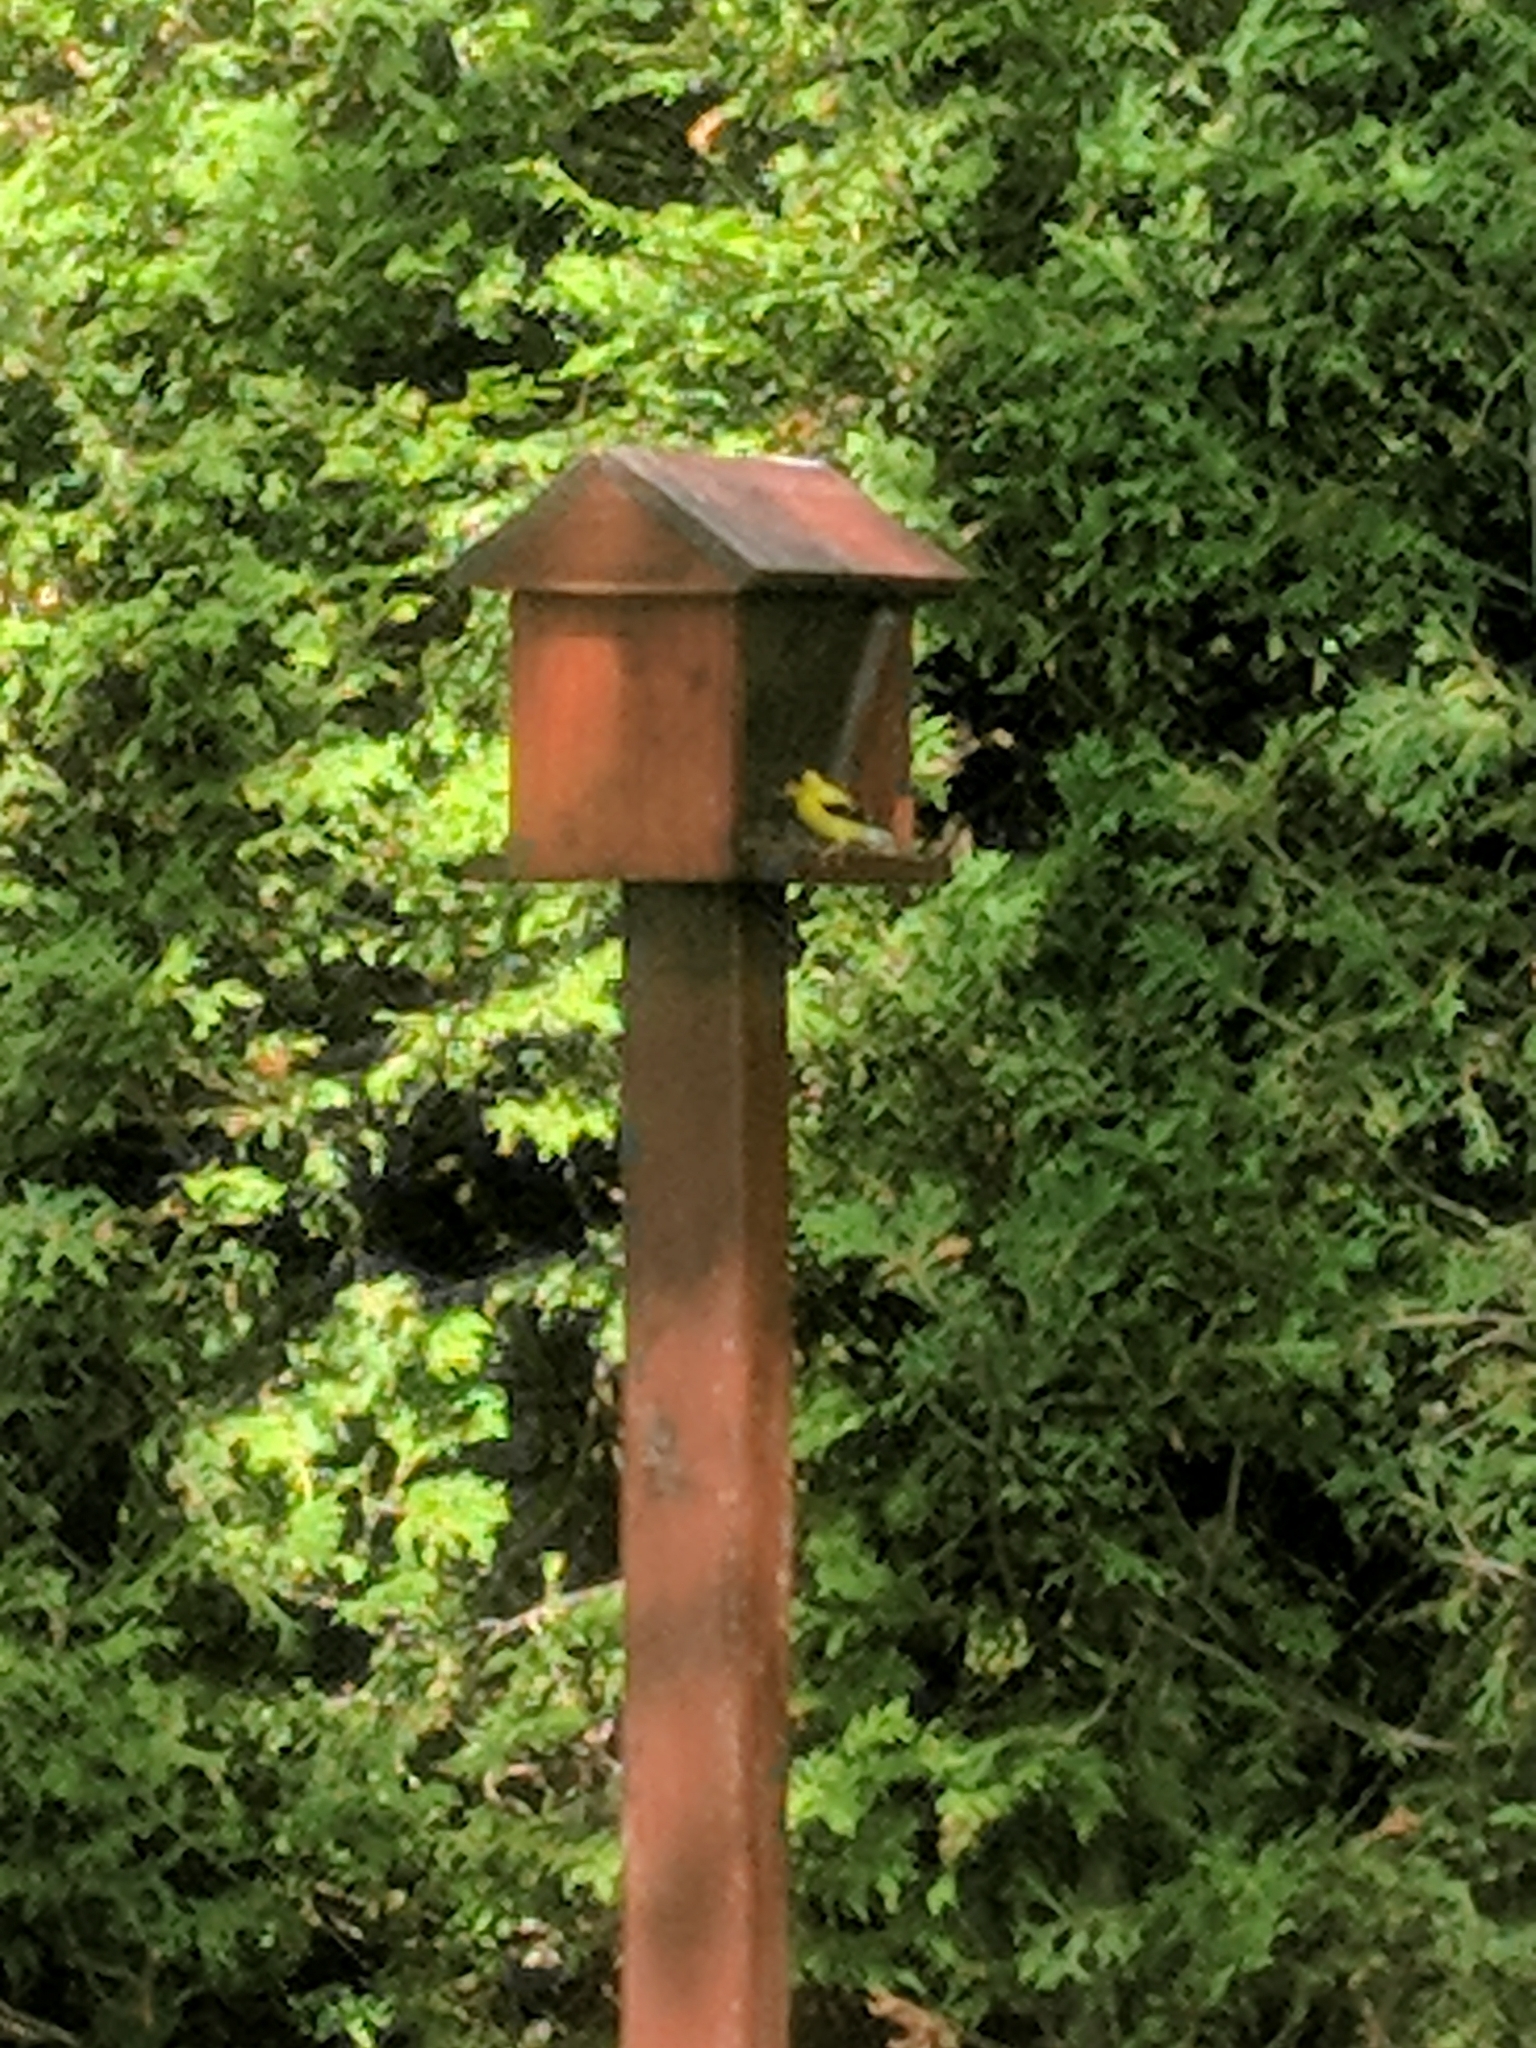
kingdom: Animalia
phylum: Chordata
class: Aves
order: Passeriformes
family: Fringillidae
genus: Spinus
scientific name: Spinus tristis
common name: American goldfinch
